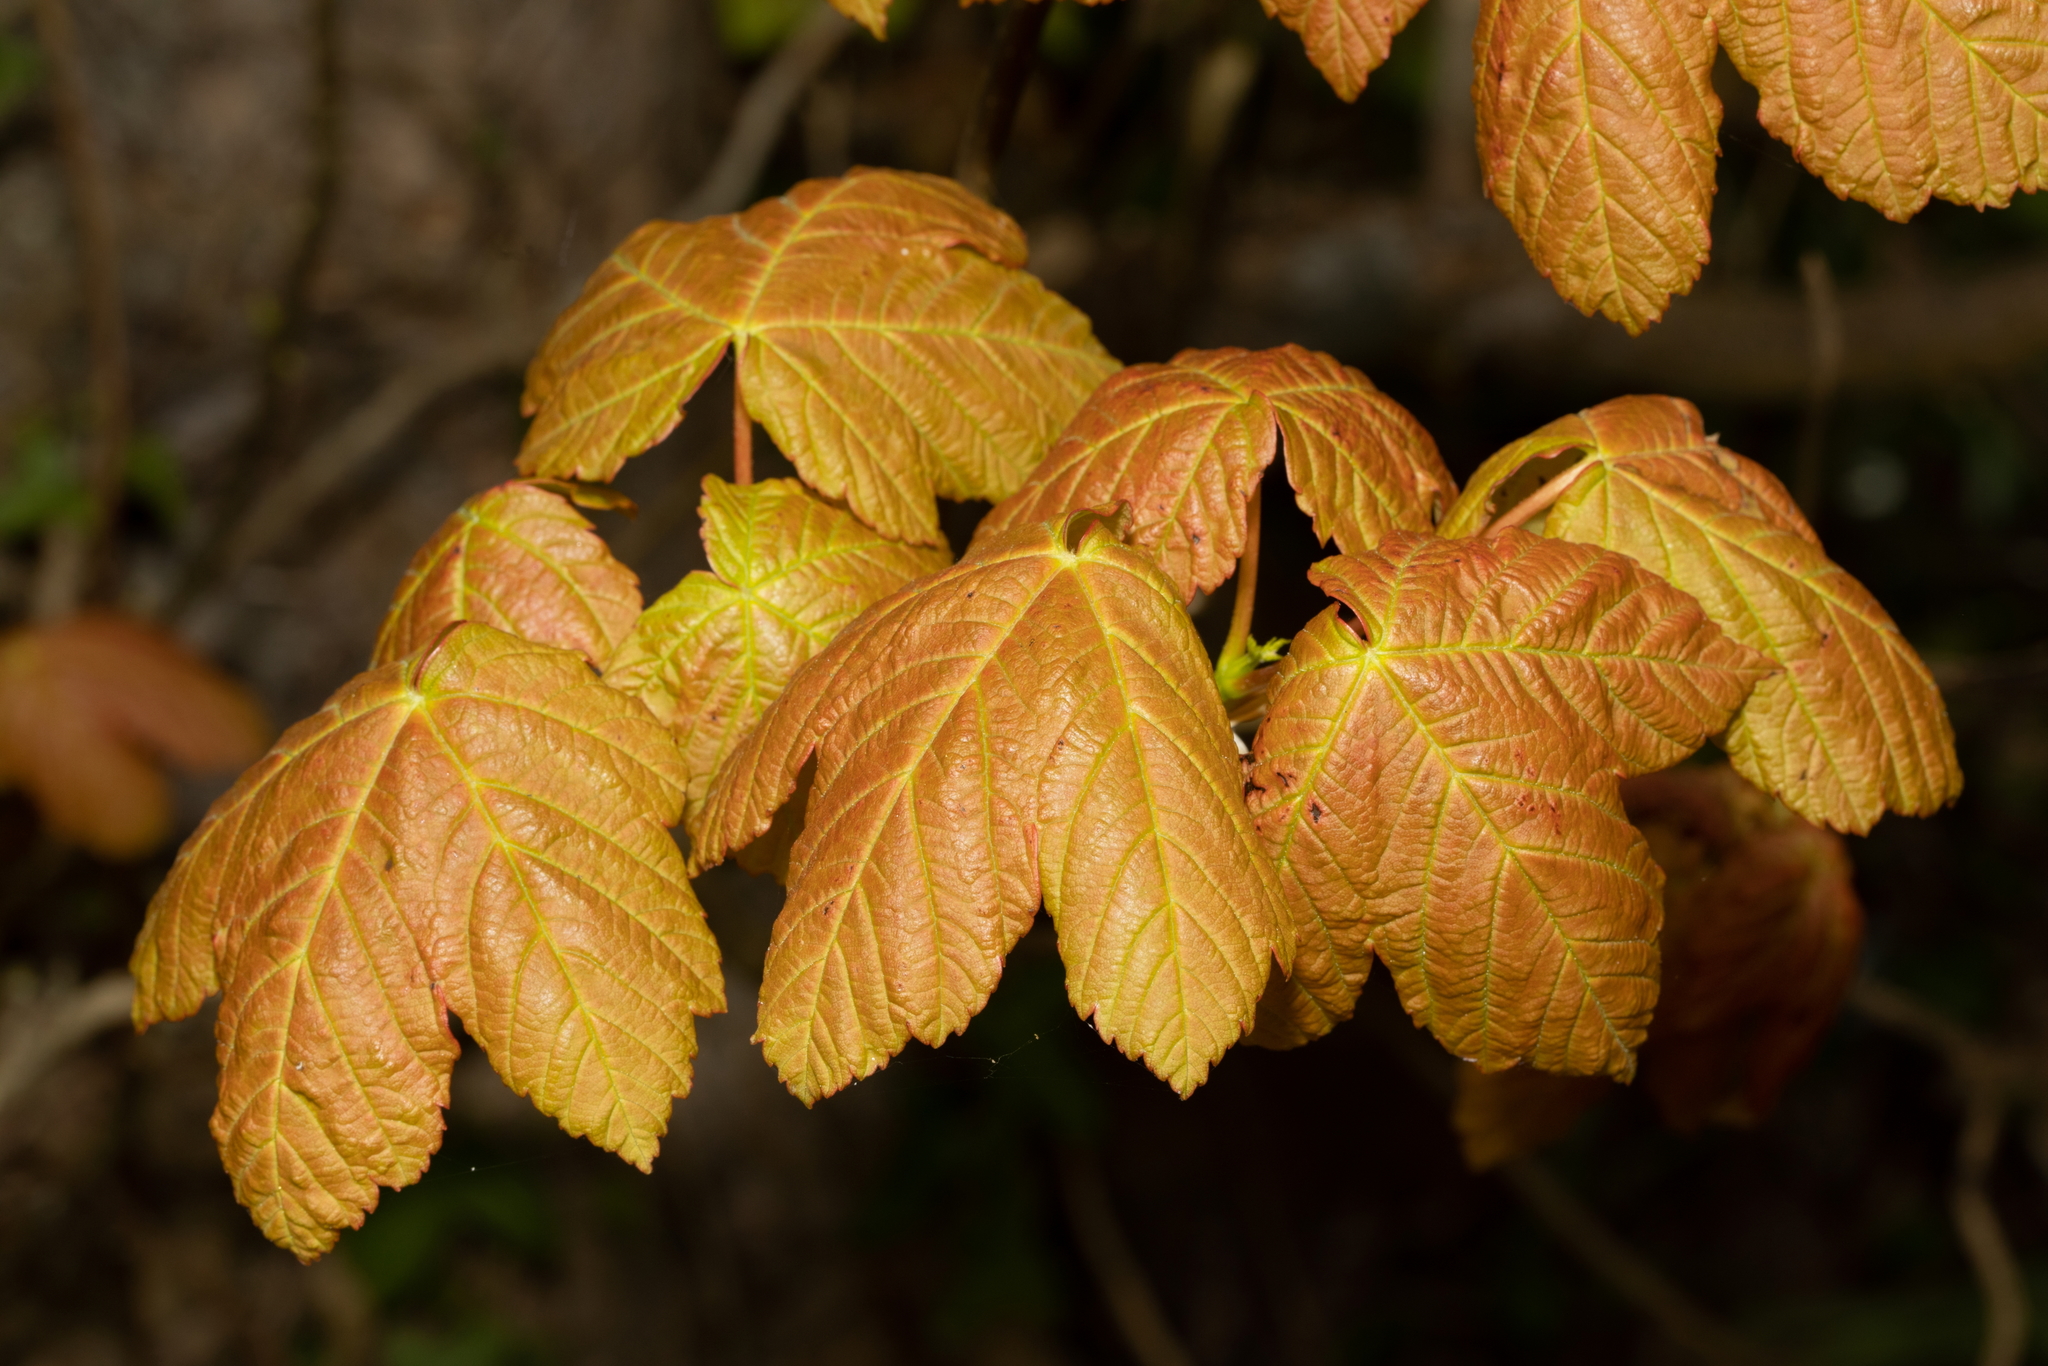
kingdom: Plantae
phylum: Tracheophyta
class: Magnoliopsida
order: Sapindales
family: Sapindaceae
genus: Acer
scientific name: Acer pseudoplatanus
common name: Sycamore
